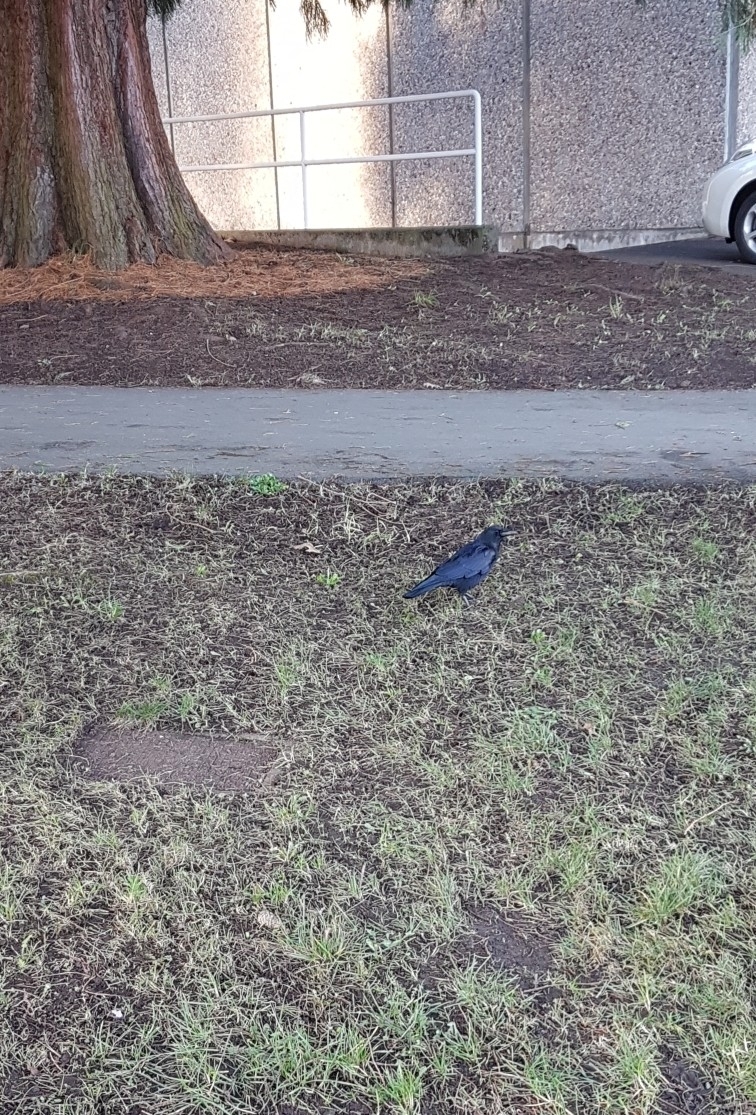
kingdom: Animalia
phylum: Chordata
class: Aves
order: Passeriformes
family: Corvidae
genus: Corvus
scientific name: Corvus brachyrhynchos
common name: American crow
